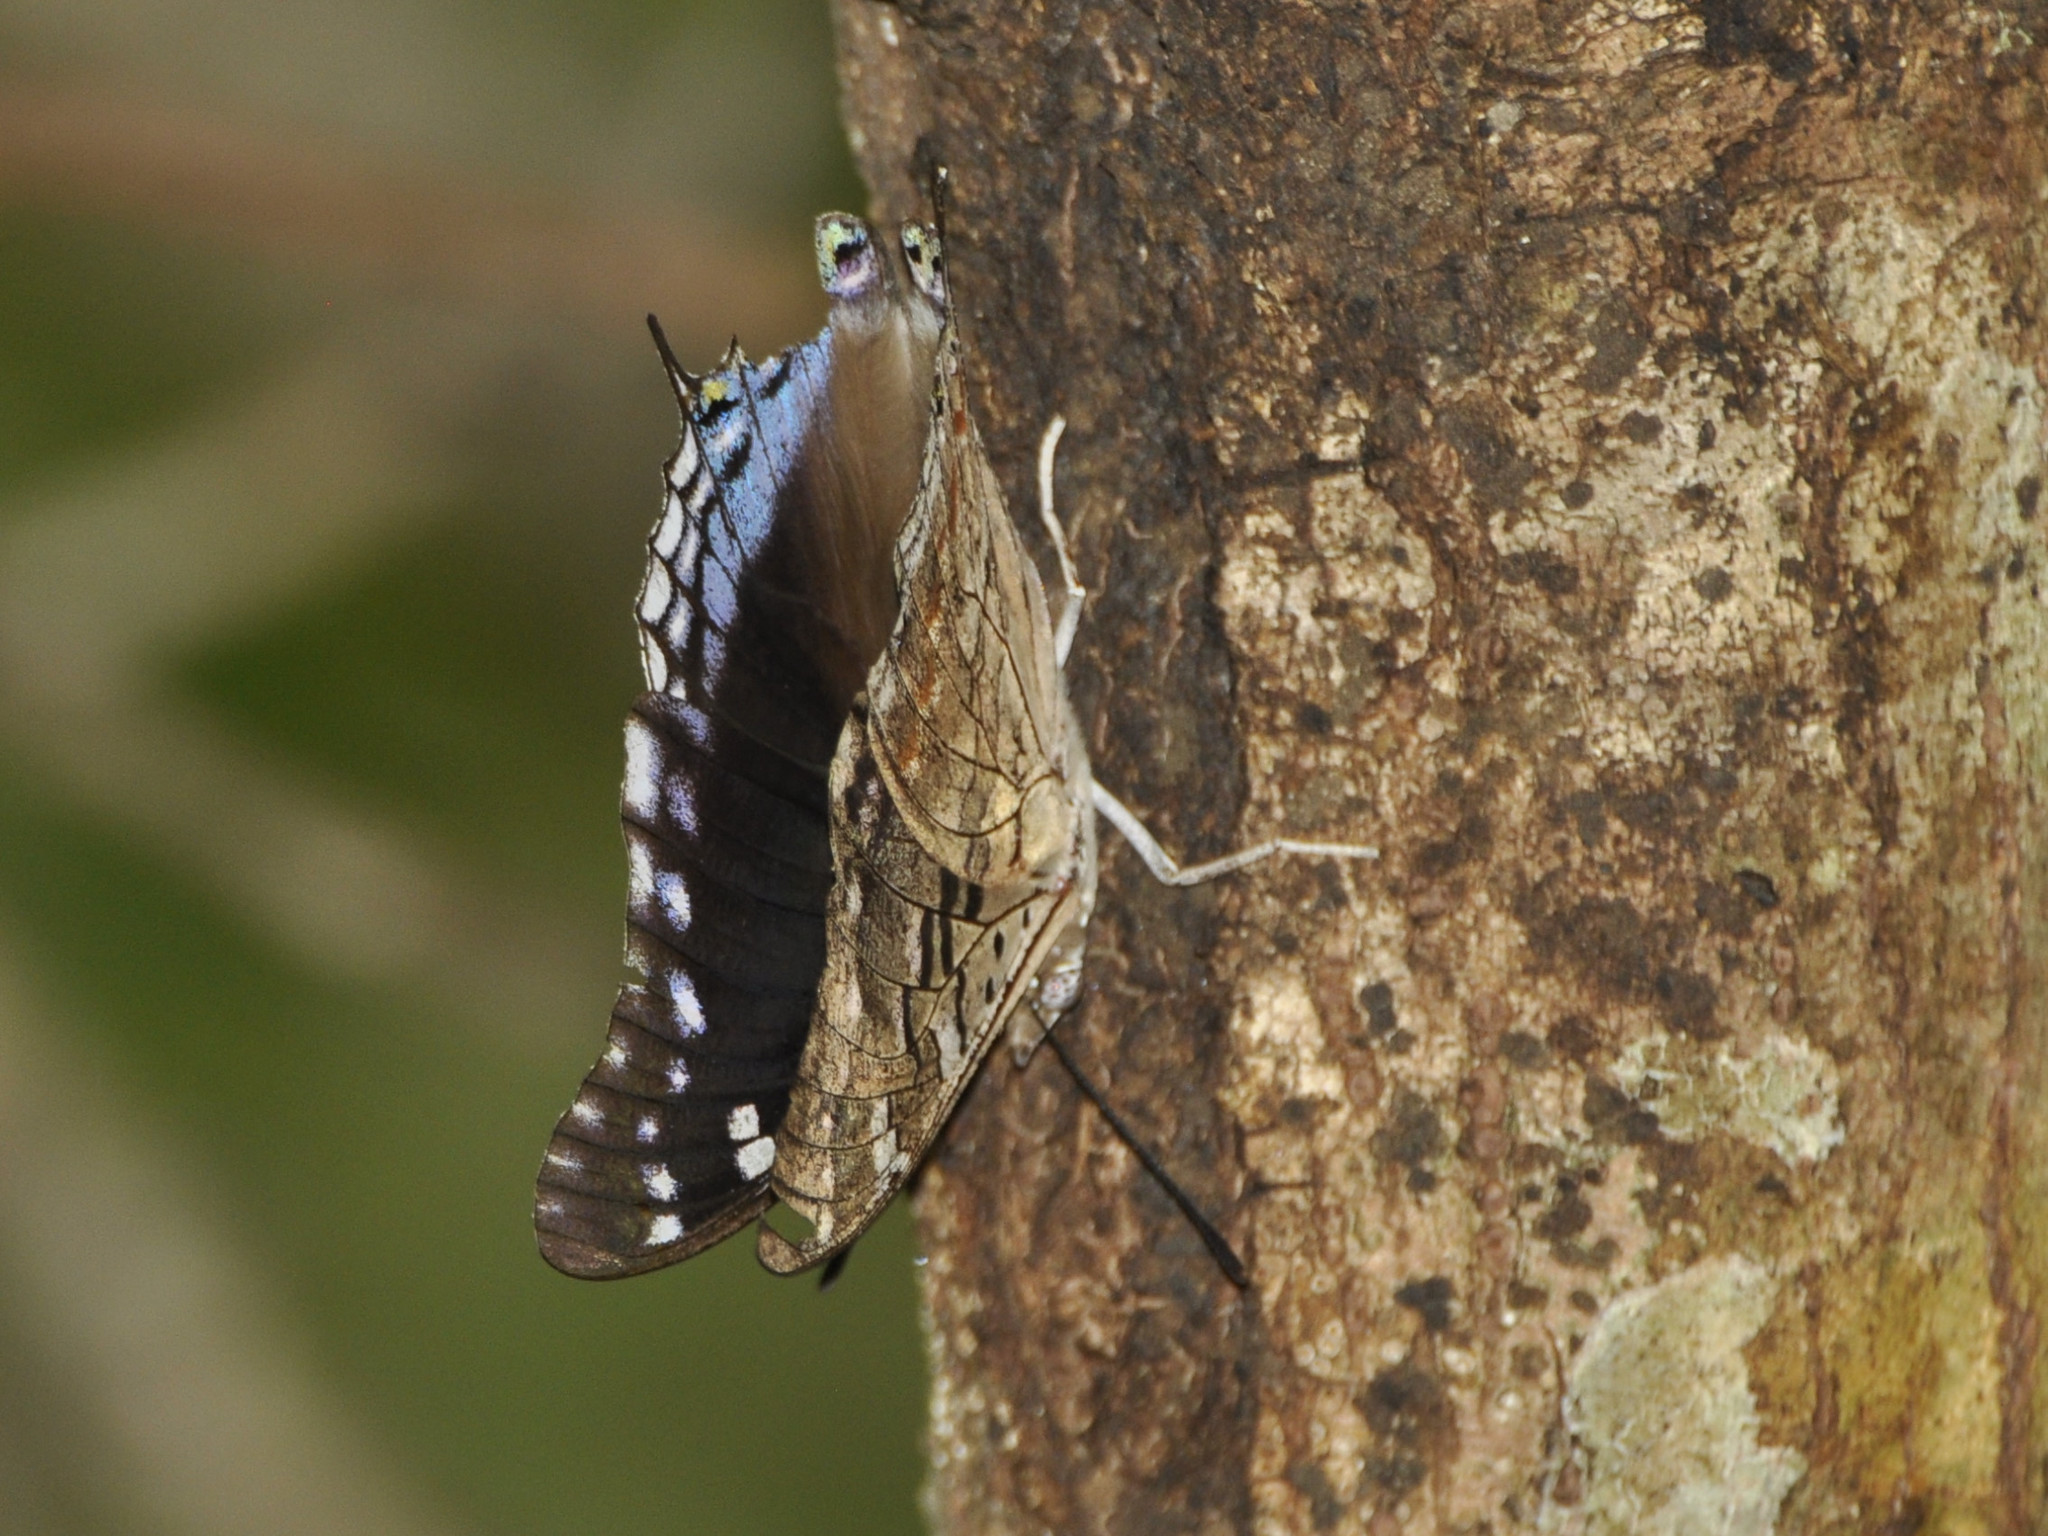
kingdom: Animalia
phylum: Arthropoda
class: Insecta
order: Lepidoptera
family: Nymphalidae
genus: Charaxes
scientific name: Charaxes guderiana
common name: Blue-spangled charaxes
